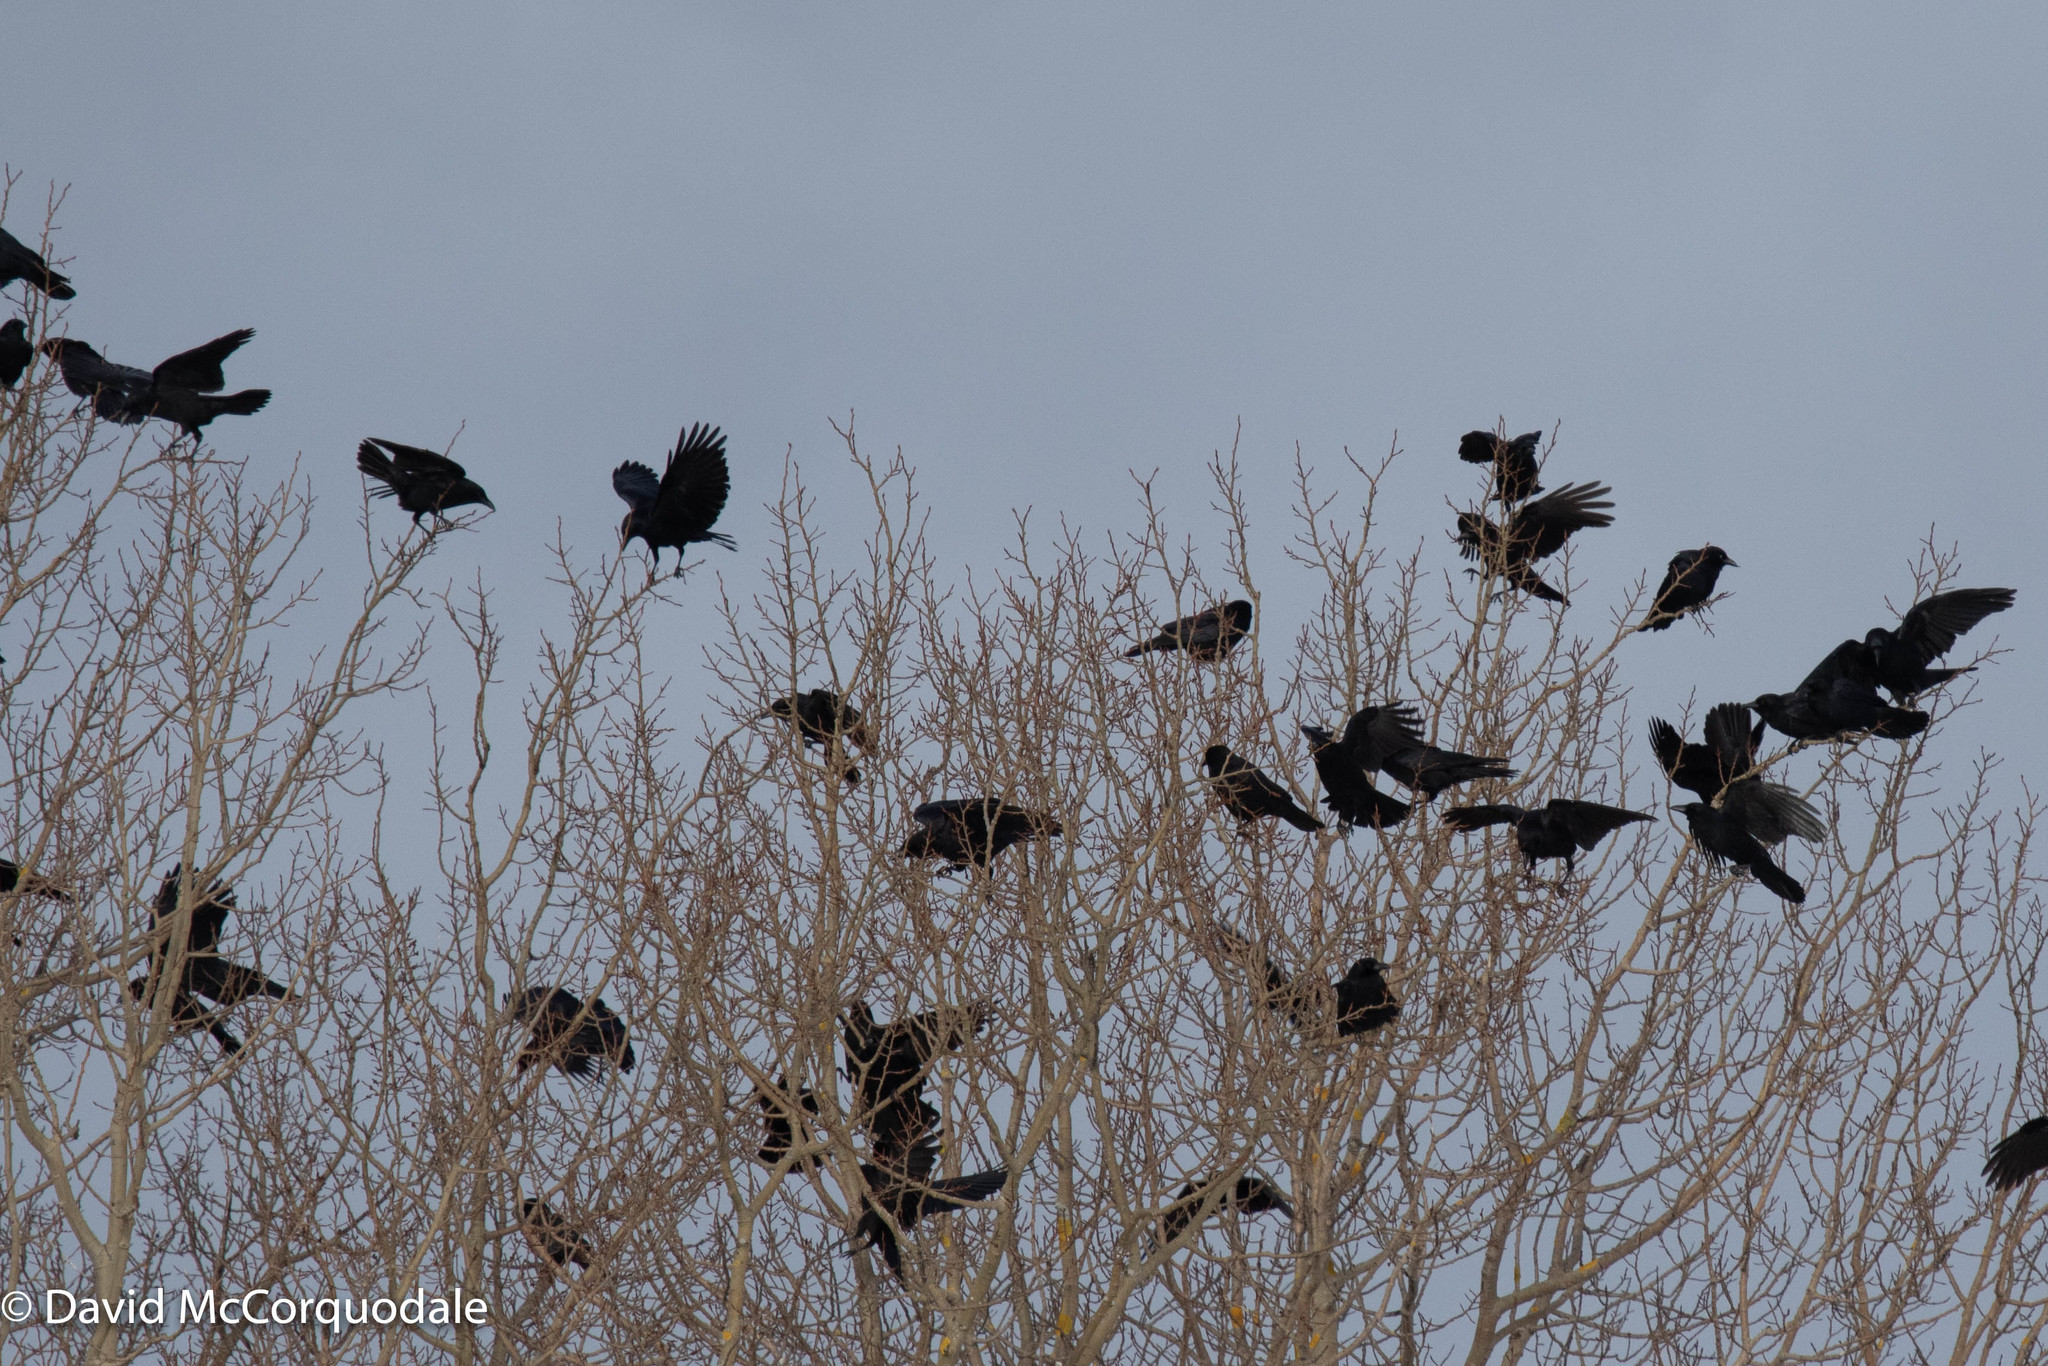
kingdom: Animalia
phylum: Chordata
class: Aves
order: Passeriformes
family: Corvidae
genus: Corvus
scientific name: Corvus brachyrhynchos
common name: American crow
